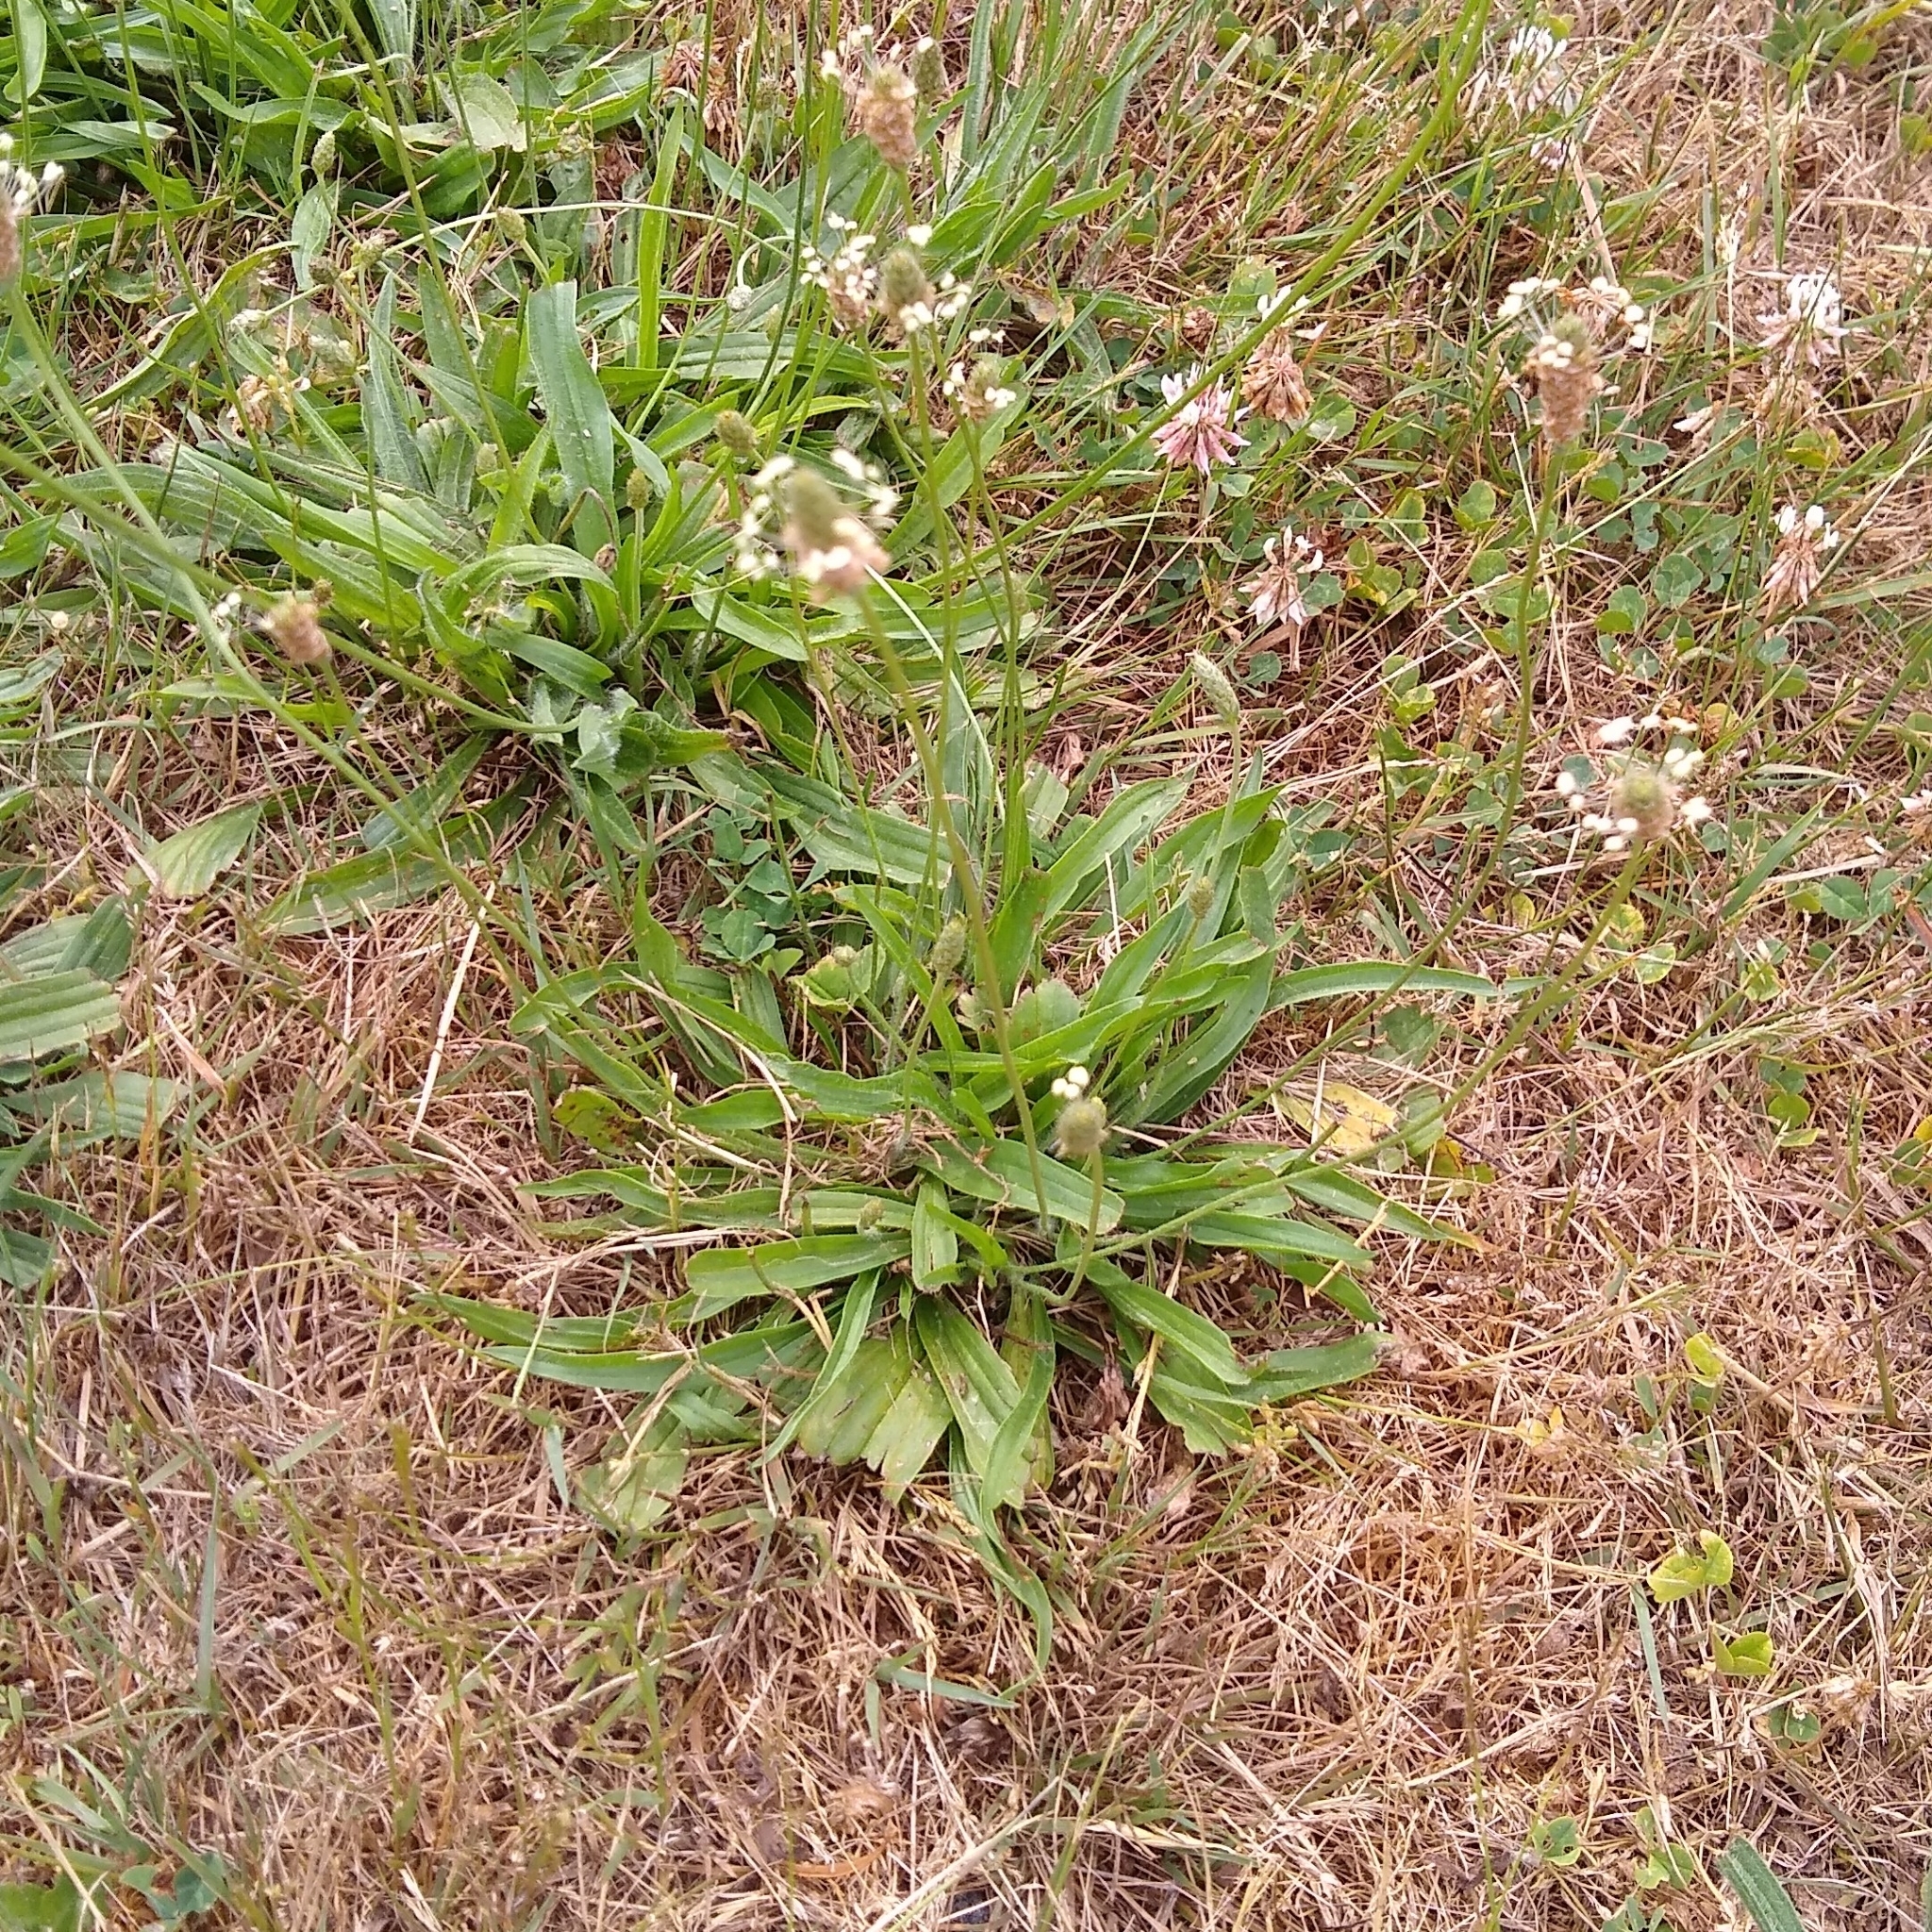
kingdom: Plantae
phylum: Tracheophyta
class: Magnoliopsida
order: Lamiales
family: Plantaginaceae
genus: Plantago
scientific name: Plantago lanceolata
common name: Ribwort plantain
